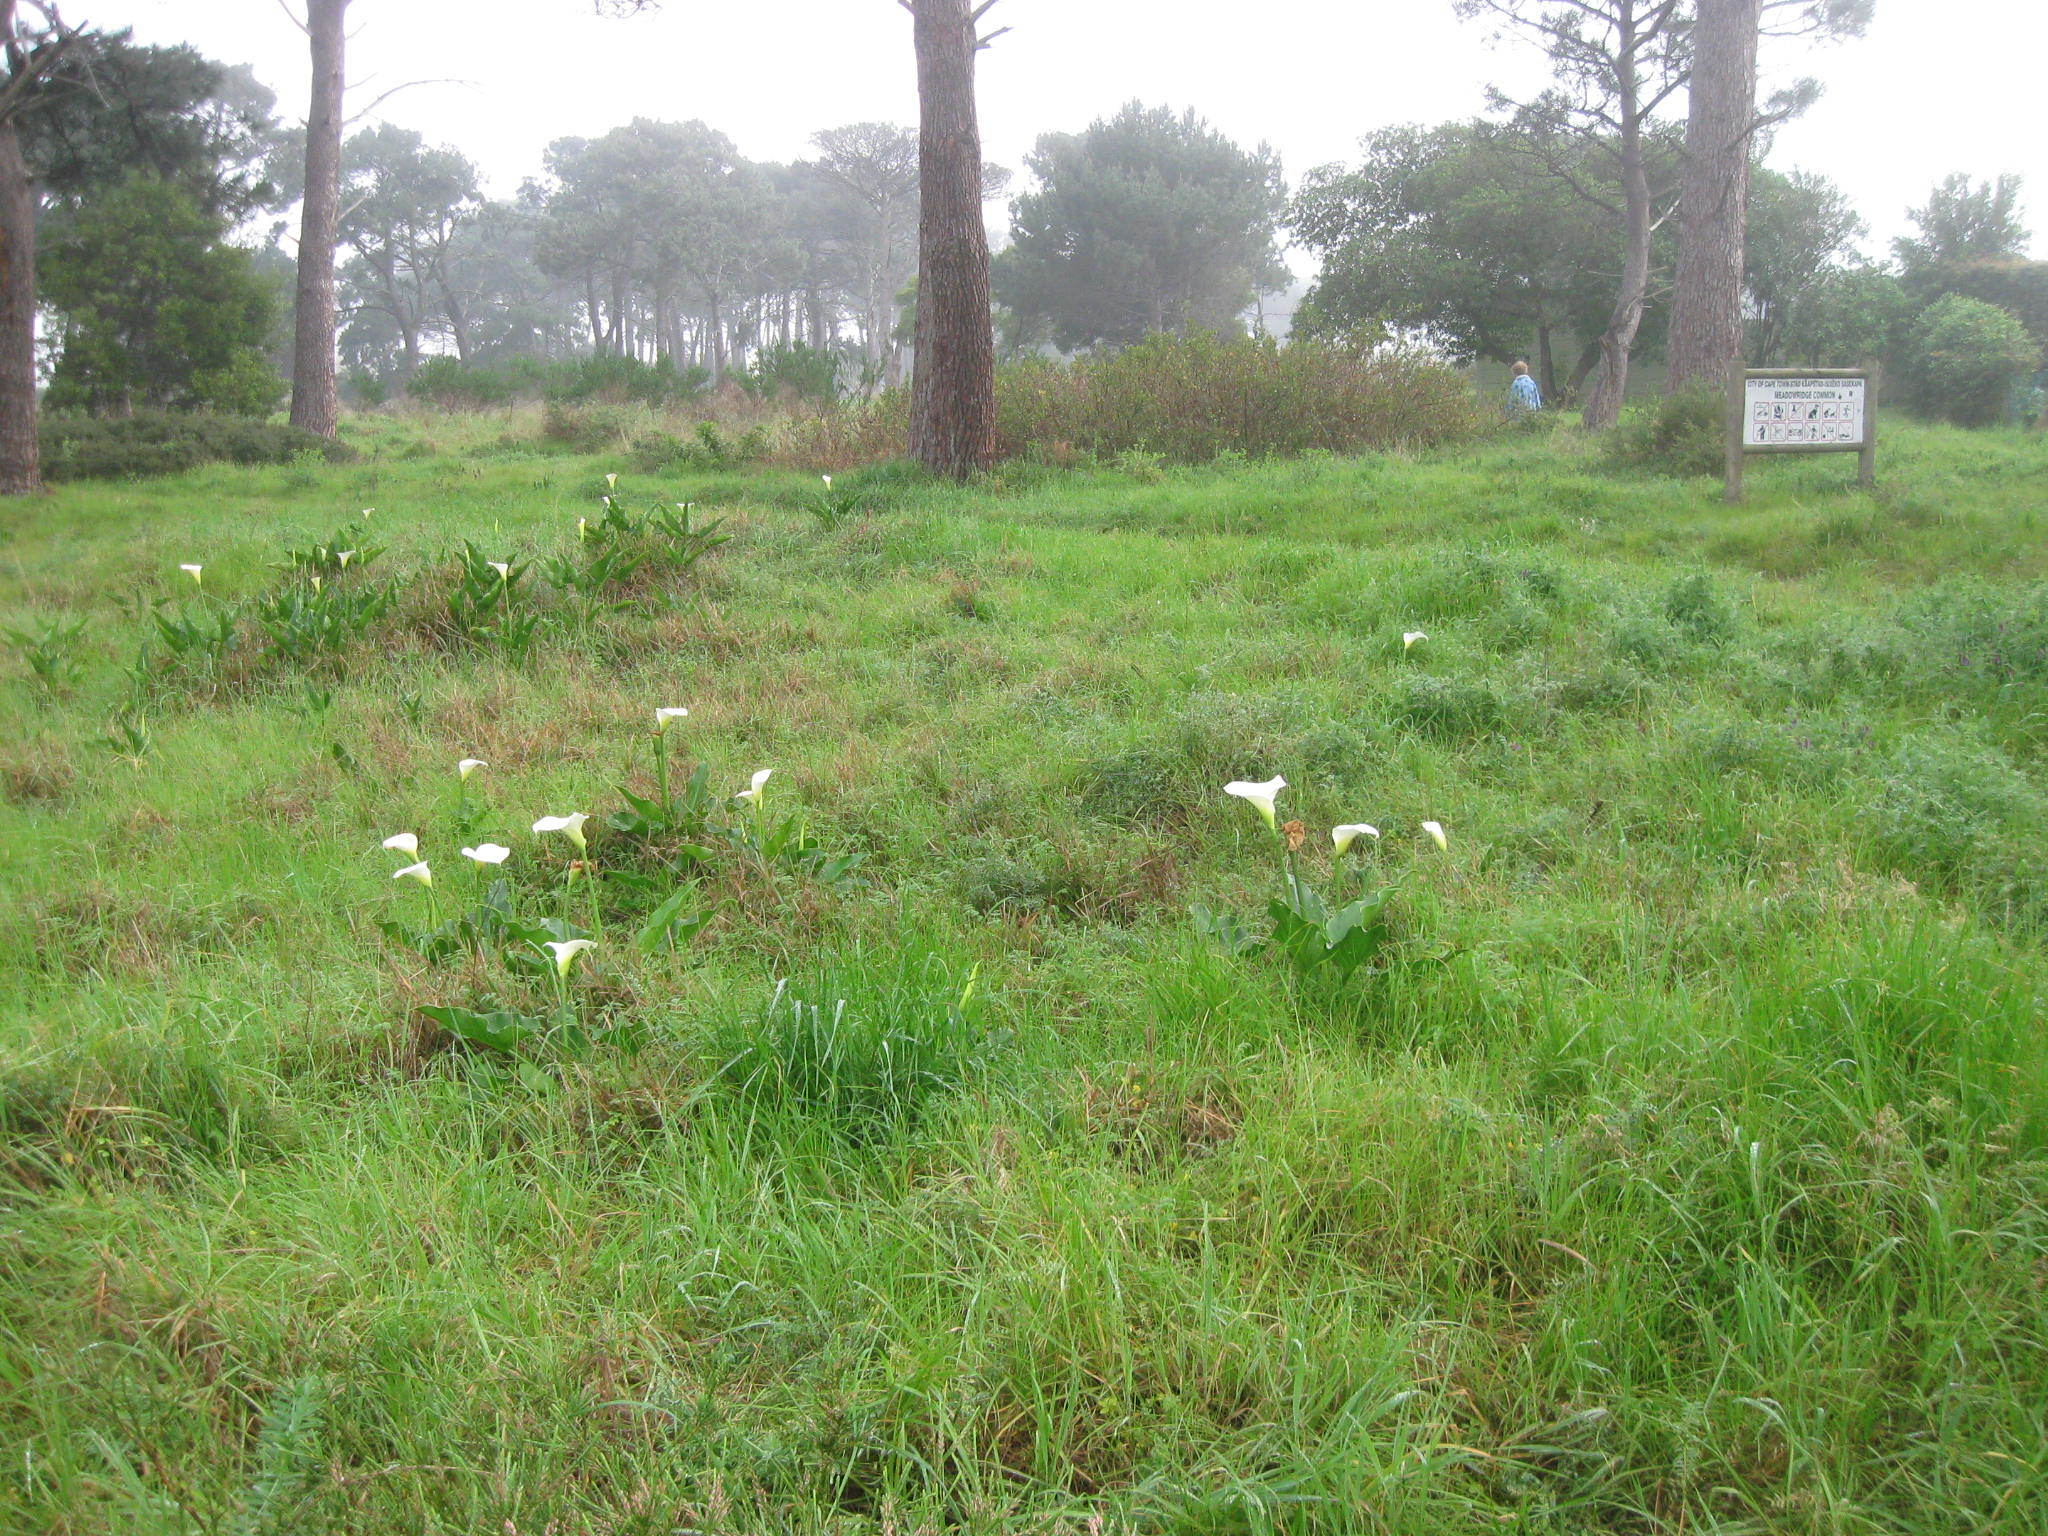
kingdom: Plantae
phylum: Tracheophyta
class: Liliopsida
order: Alismatales
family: Araceae
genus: Zantedeschia
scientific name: Zantedeschia aethiopica
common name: Altar-lily
